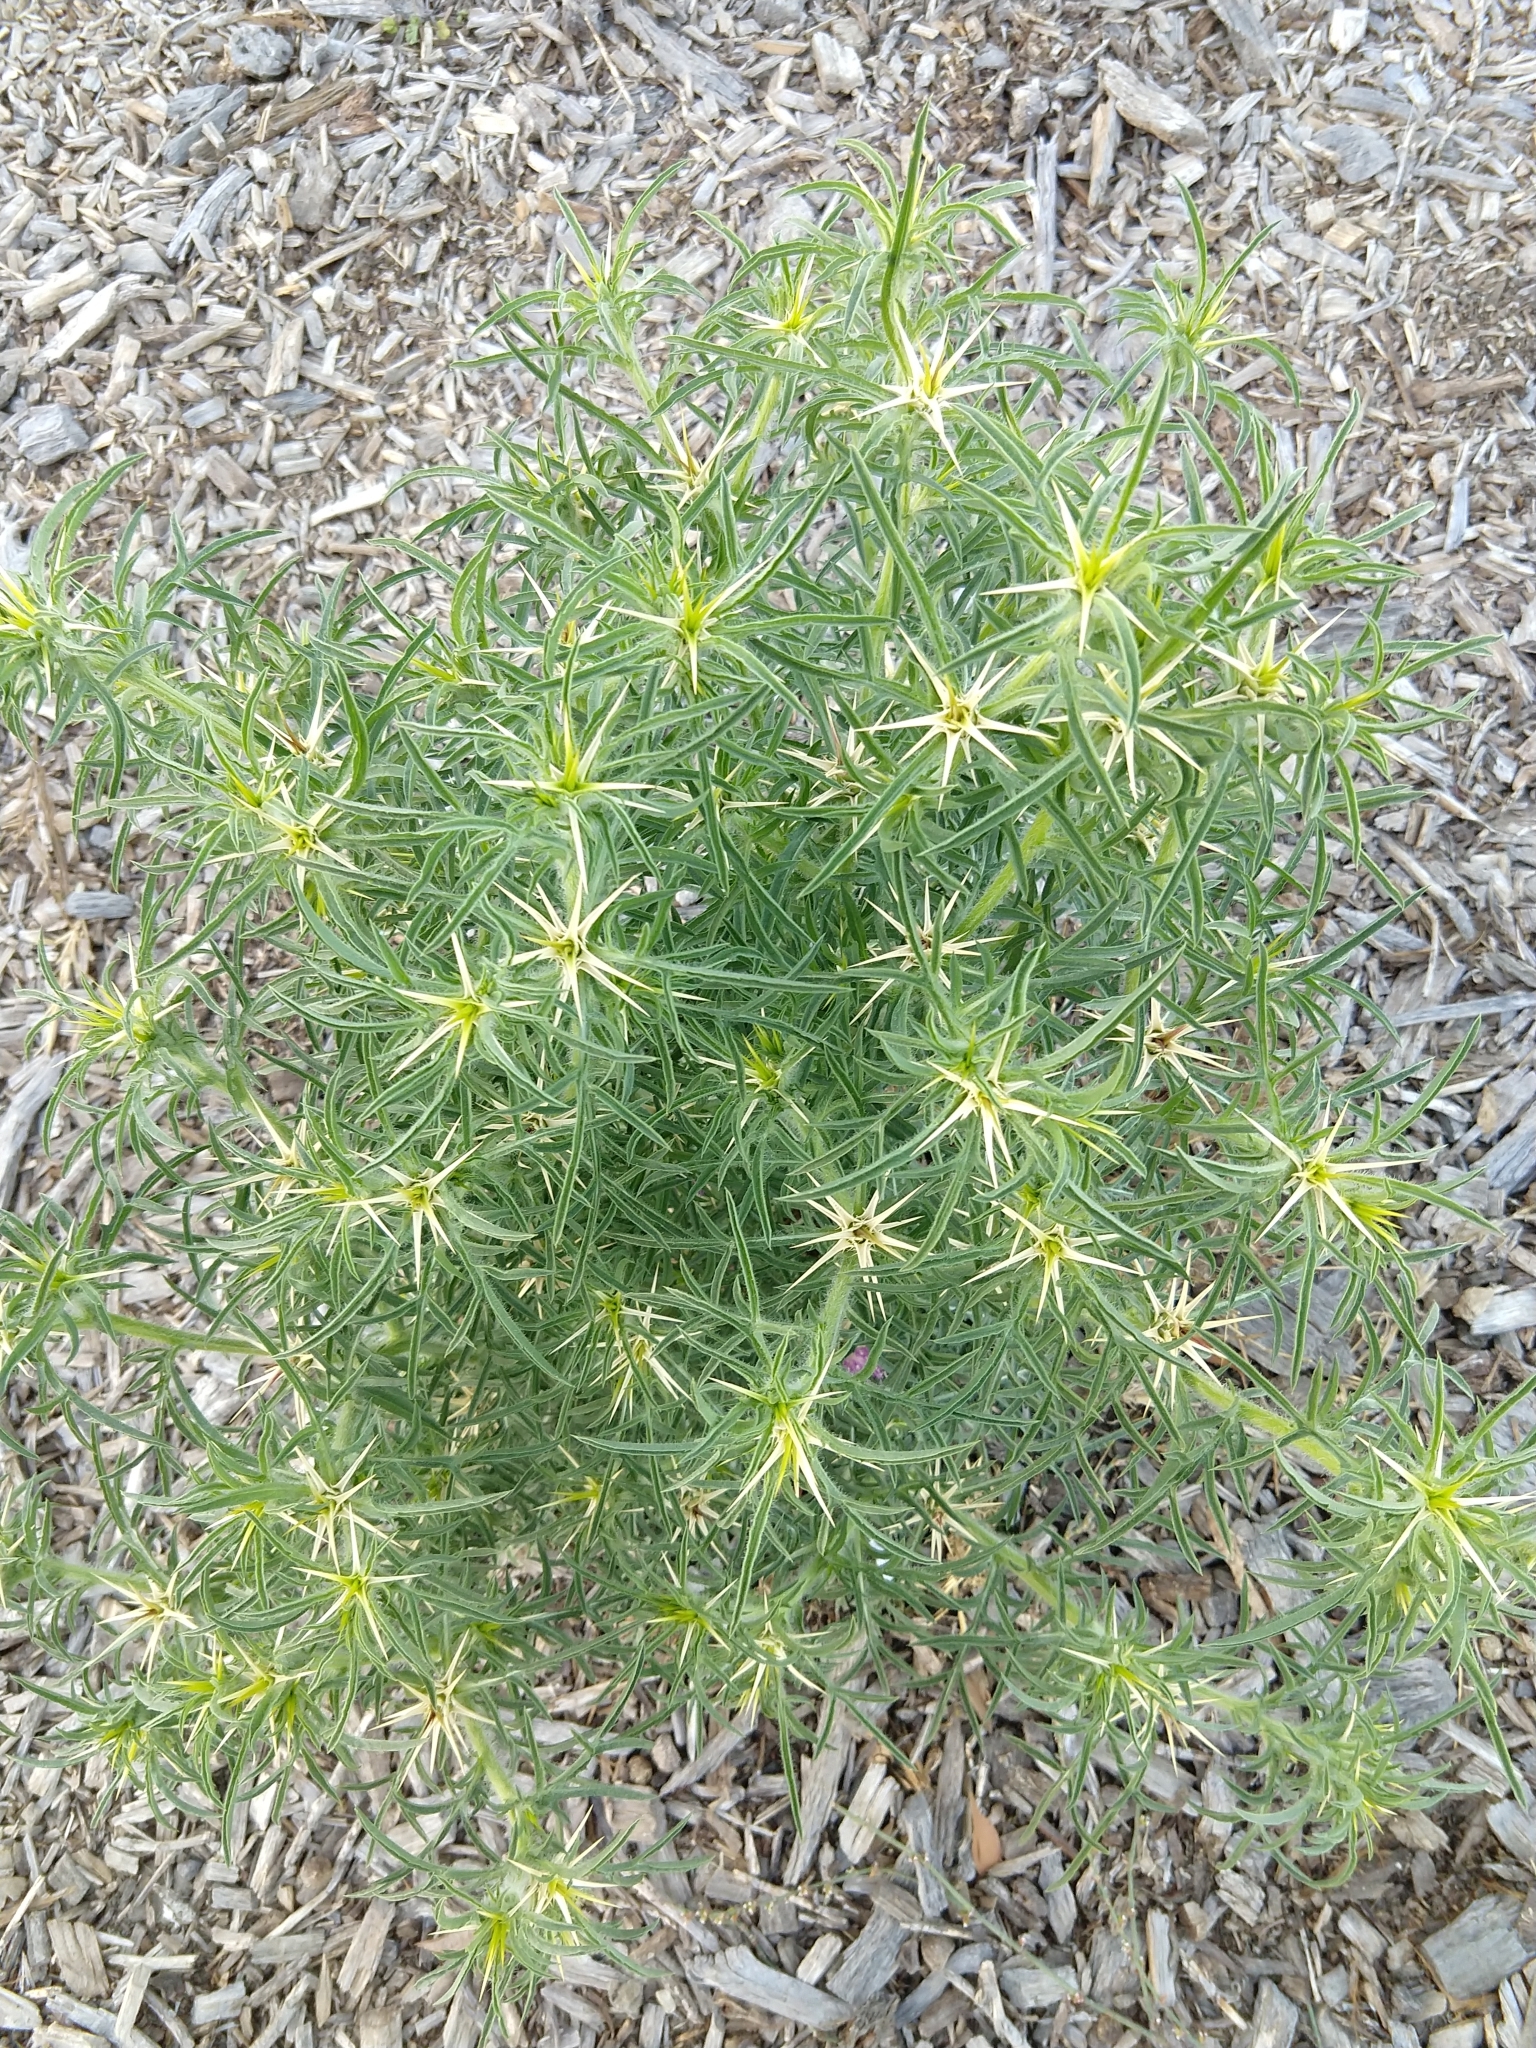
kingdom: Plantae
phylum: Tracheophyta
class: Magnoliopsida
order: Asterales
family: Asteraceae
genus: Centaurea
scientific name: Centaurea calcitrapa
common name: Red star-thistle
